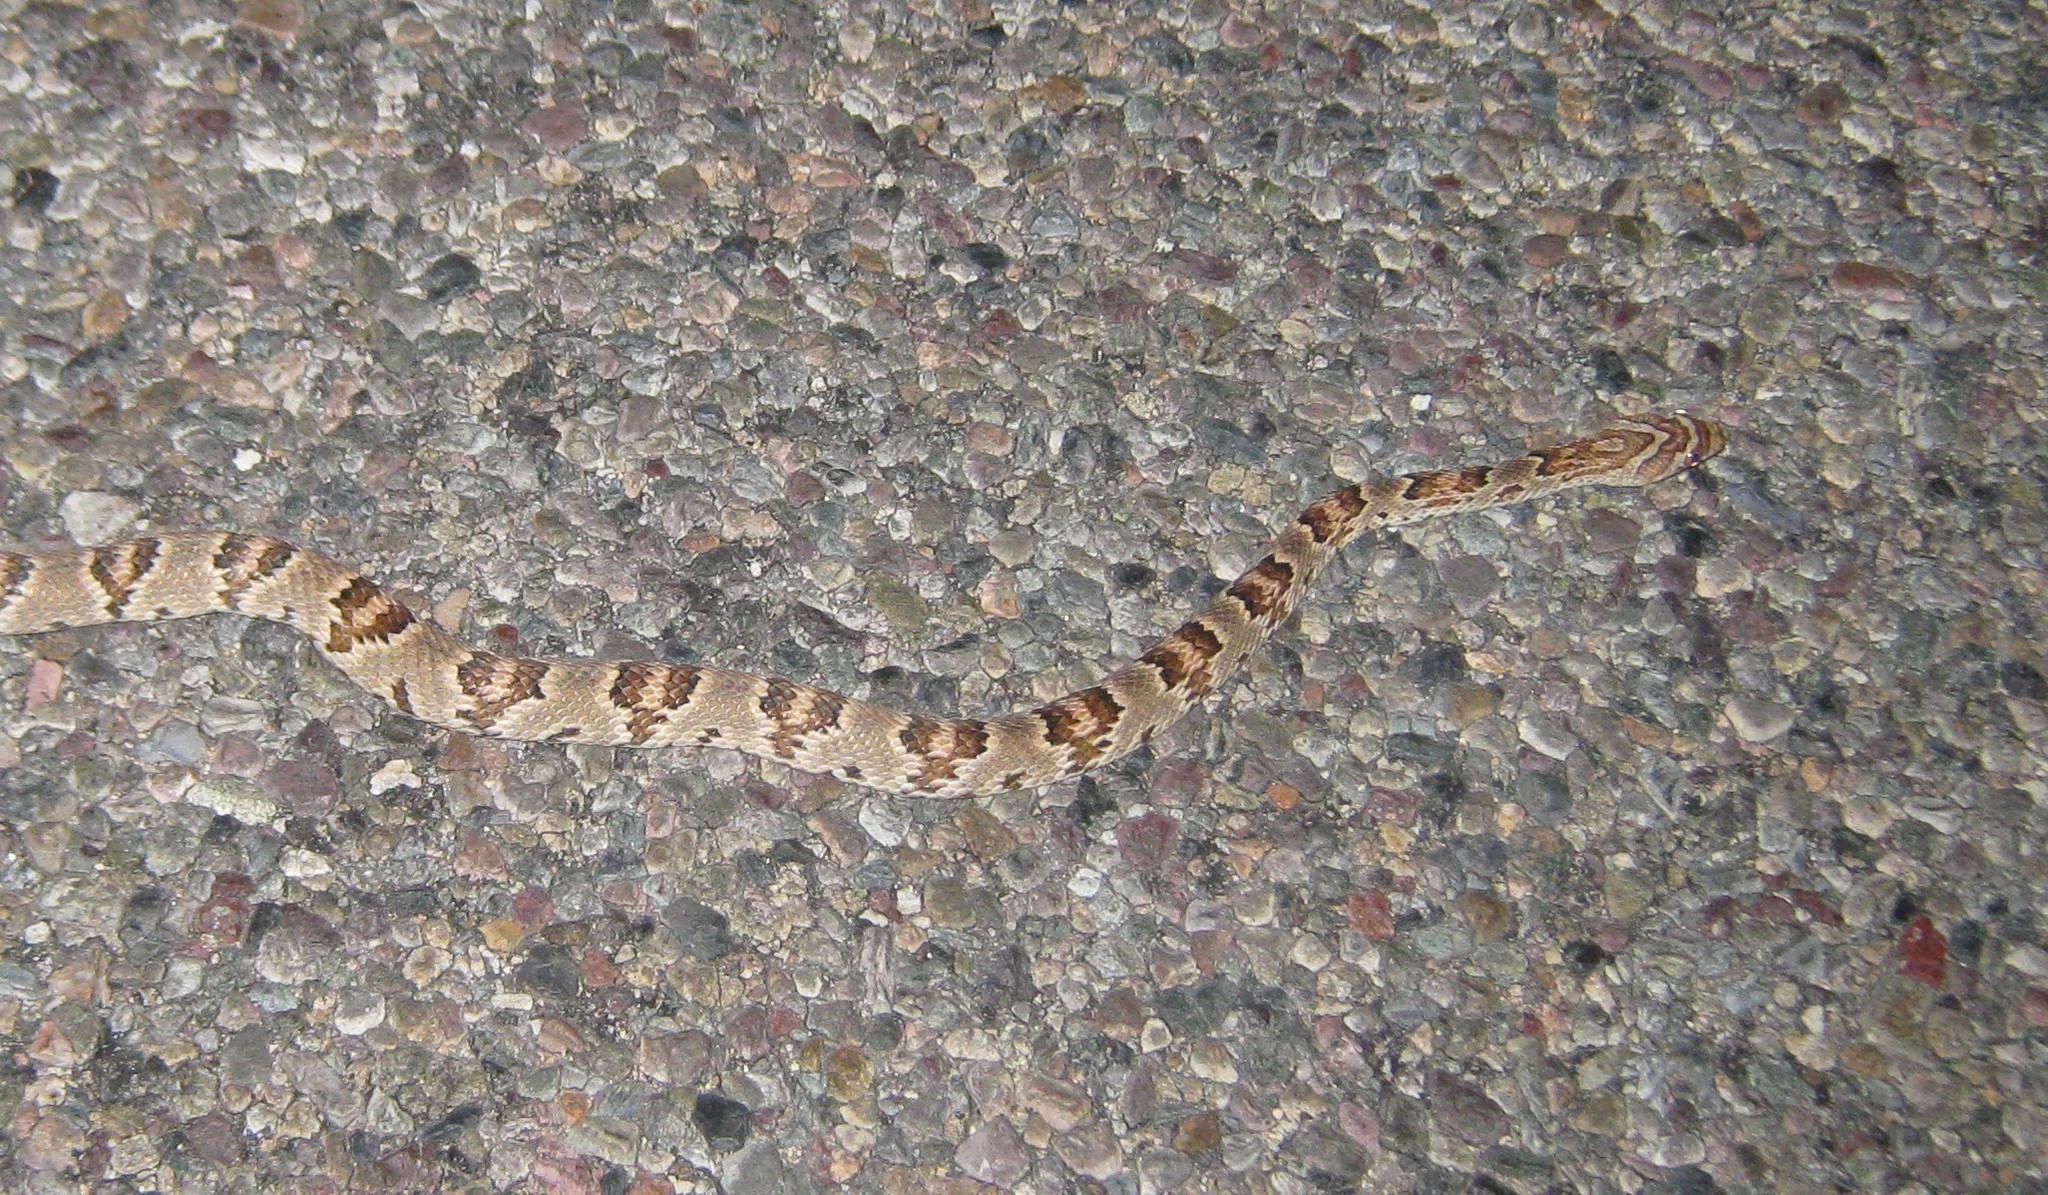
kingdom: Animalia
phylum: Chordata
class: Squamata
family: Colubridae
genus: Trimorphodon
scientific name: Trimorphodon lambda
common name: Sonoran lyre snake
